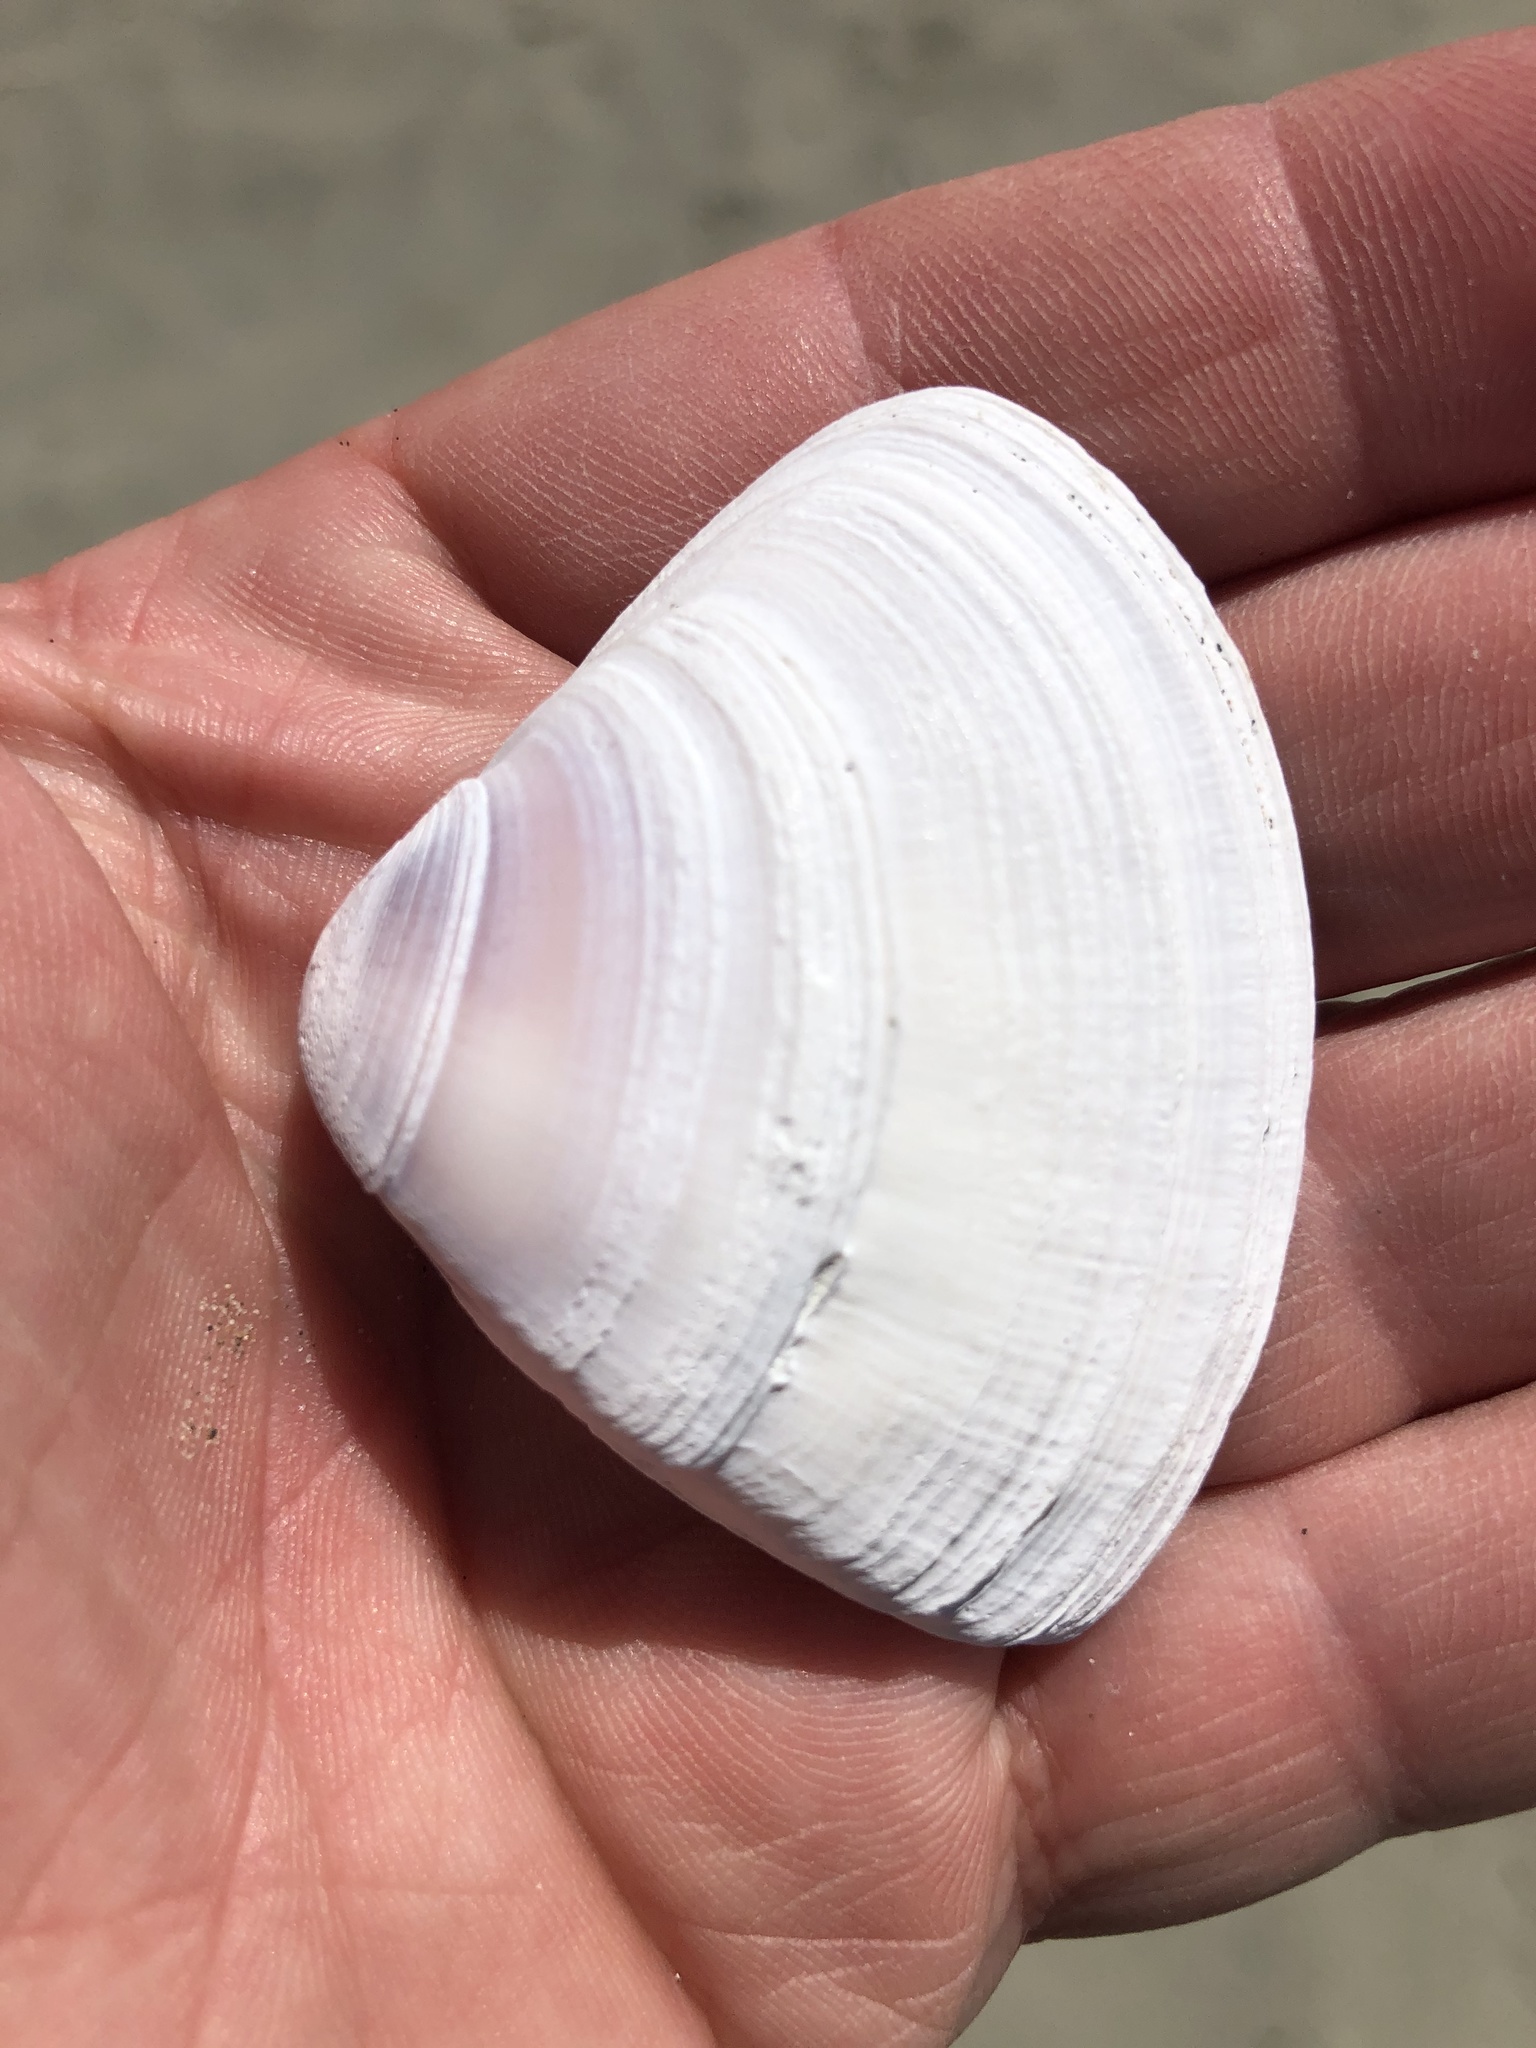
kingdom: Animalia
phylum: Mollusca
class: Bivalvia
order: Venerida
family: Mactridae
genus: Crassula
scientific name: Crassula aequilatera
